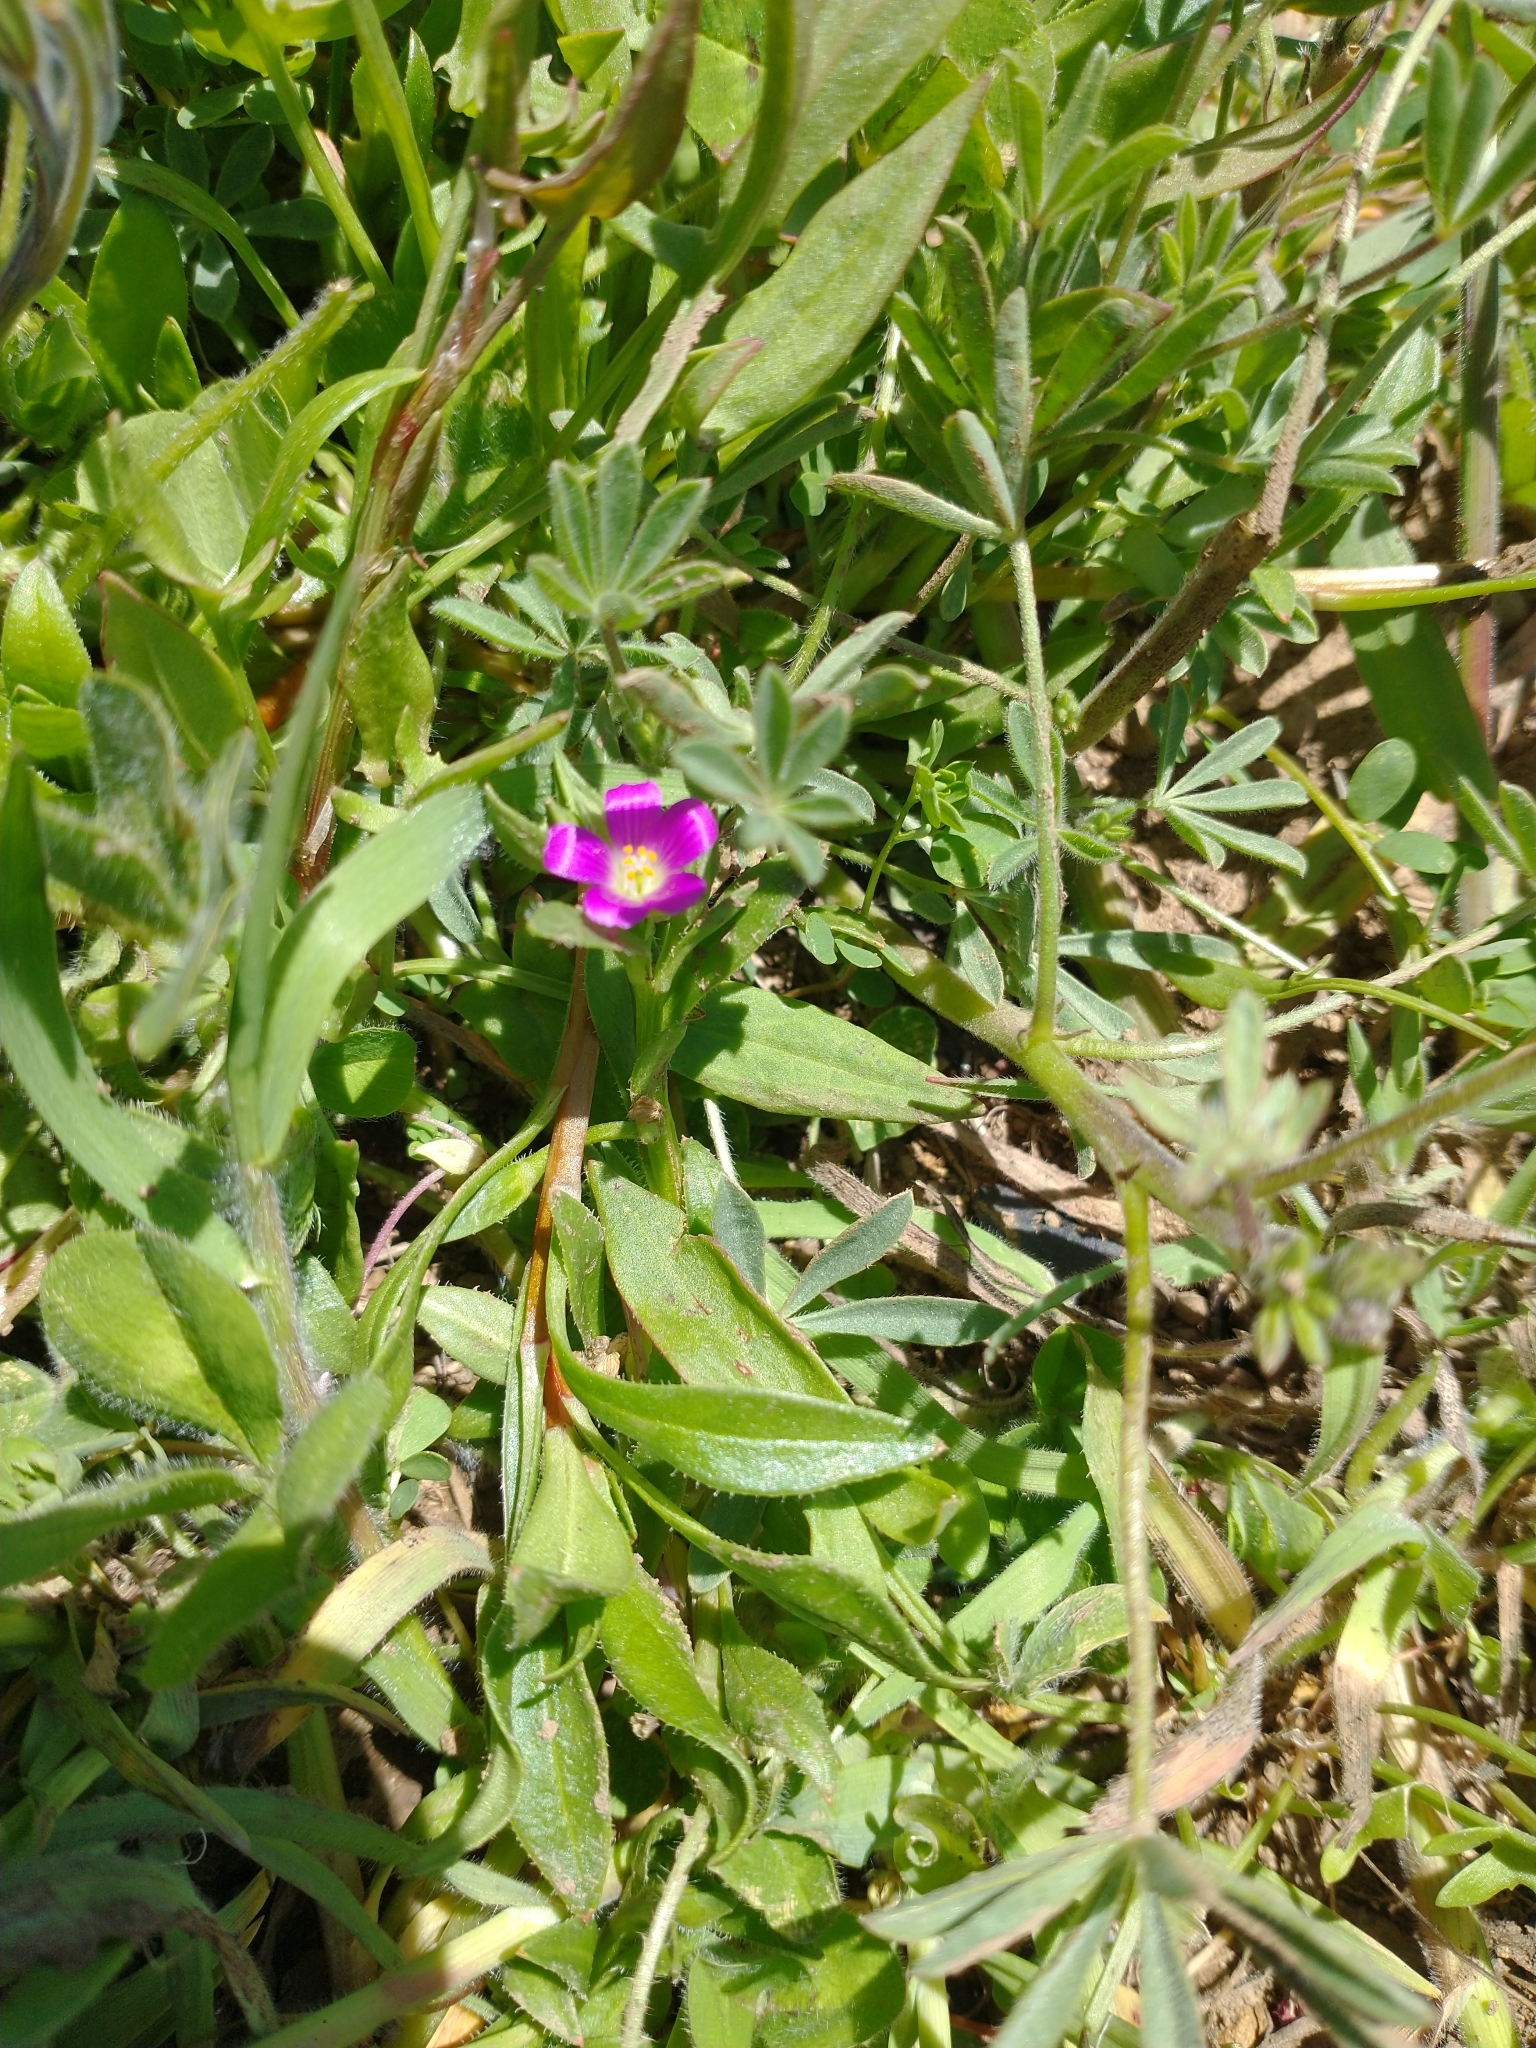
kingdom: Plantae
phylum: Tracheophyta
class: Magnoliopsida
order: Caryophyllales
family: Montiaceae
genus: Calandrinia
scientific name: Calandrinia menziesii
